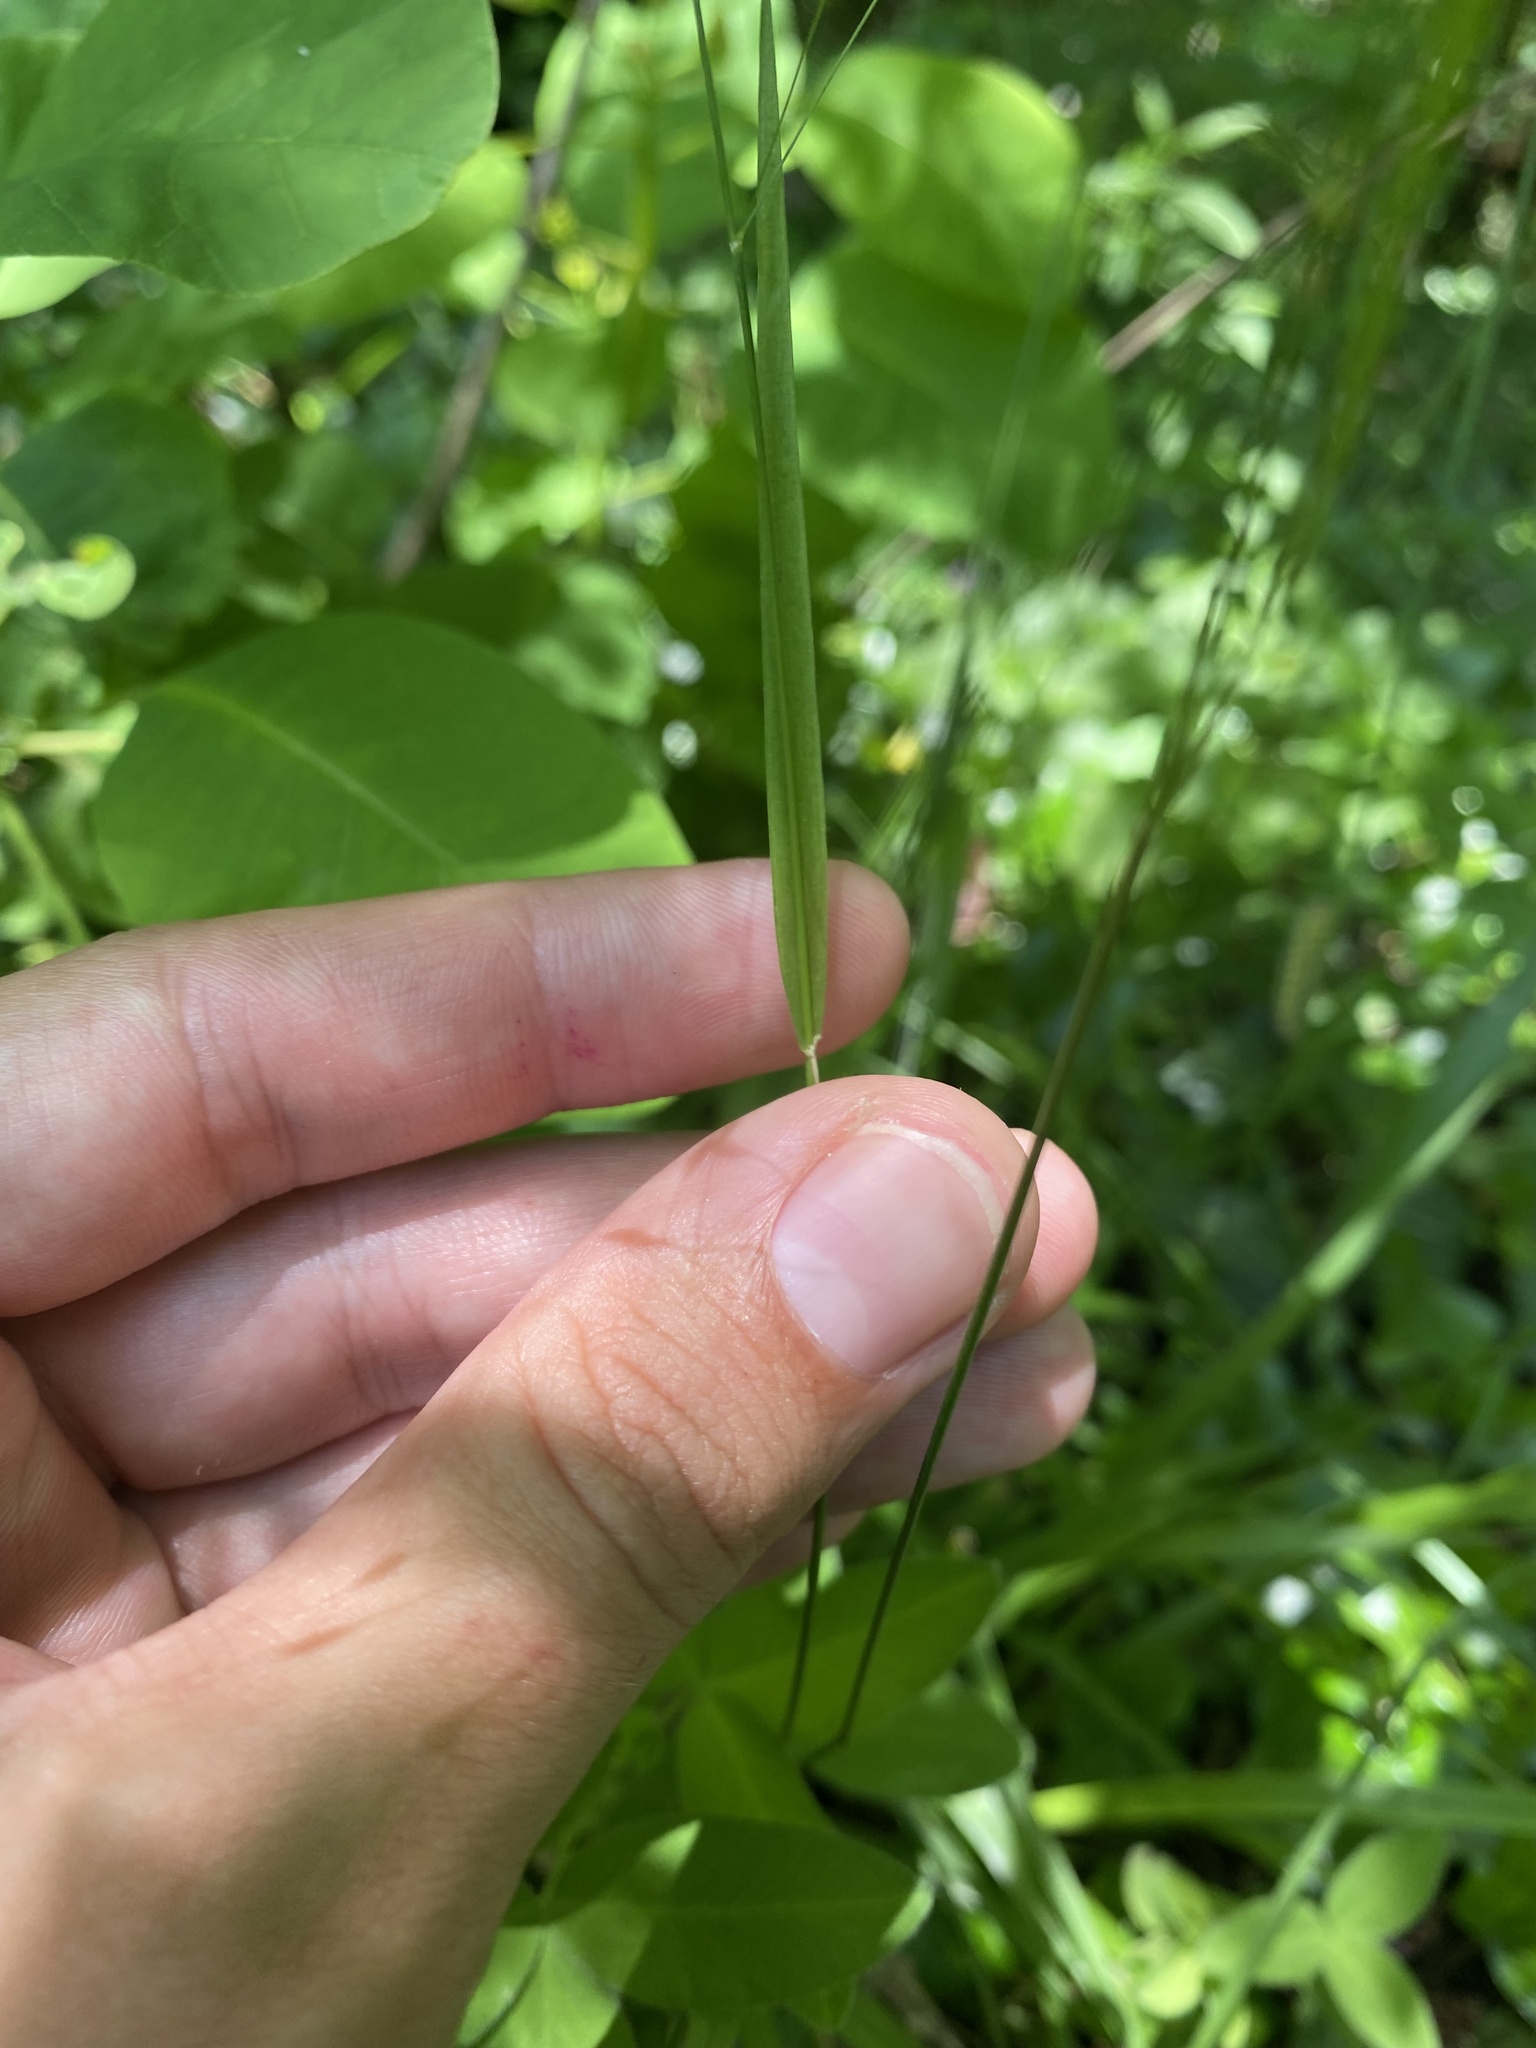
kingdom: Plantae
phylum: Tracheophyta
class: Liliopsida
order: Poales
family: Poaceae
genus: Achnatherum
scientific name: Achnatherum virescens
